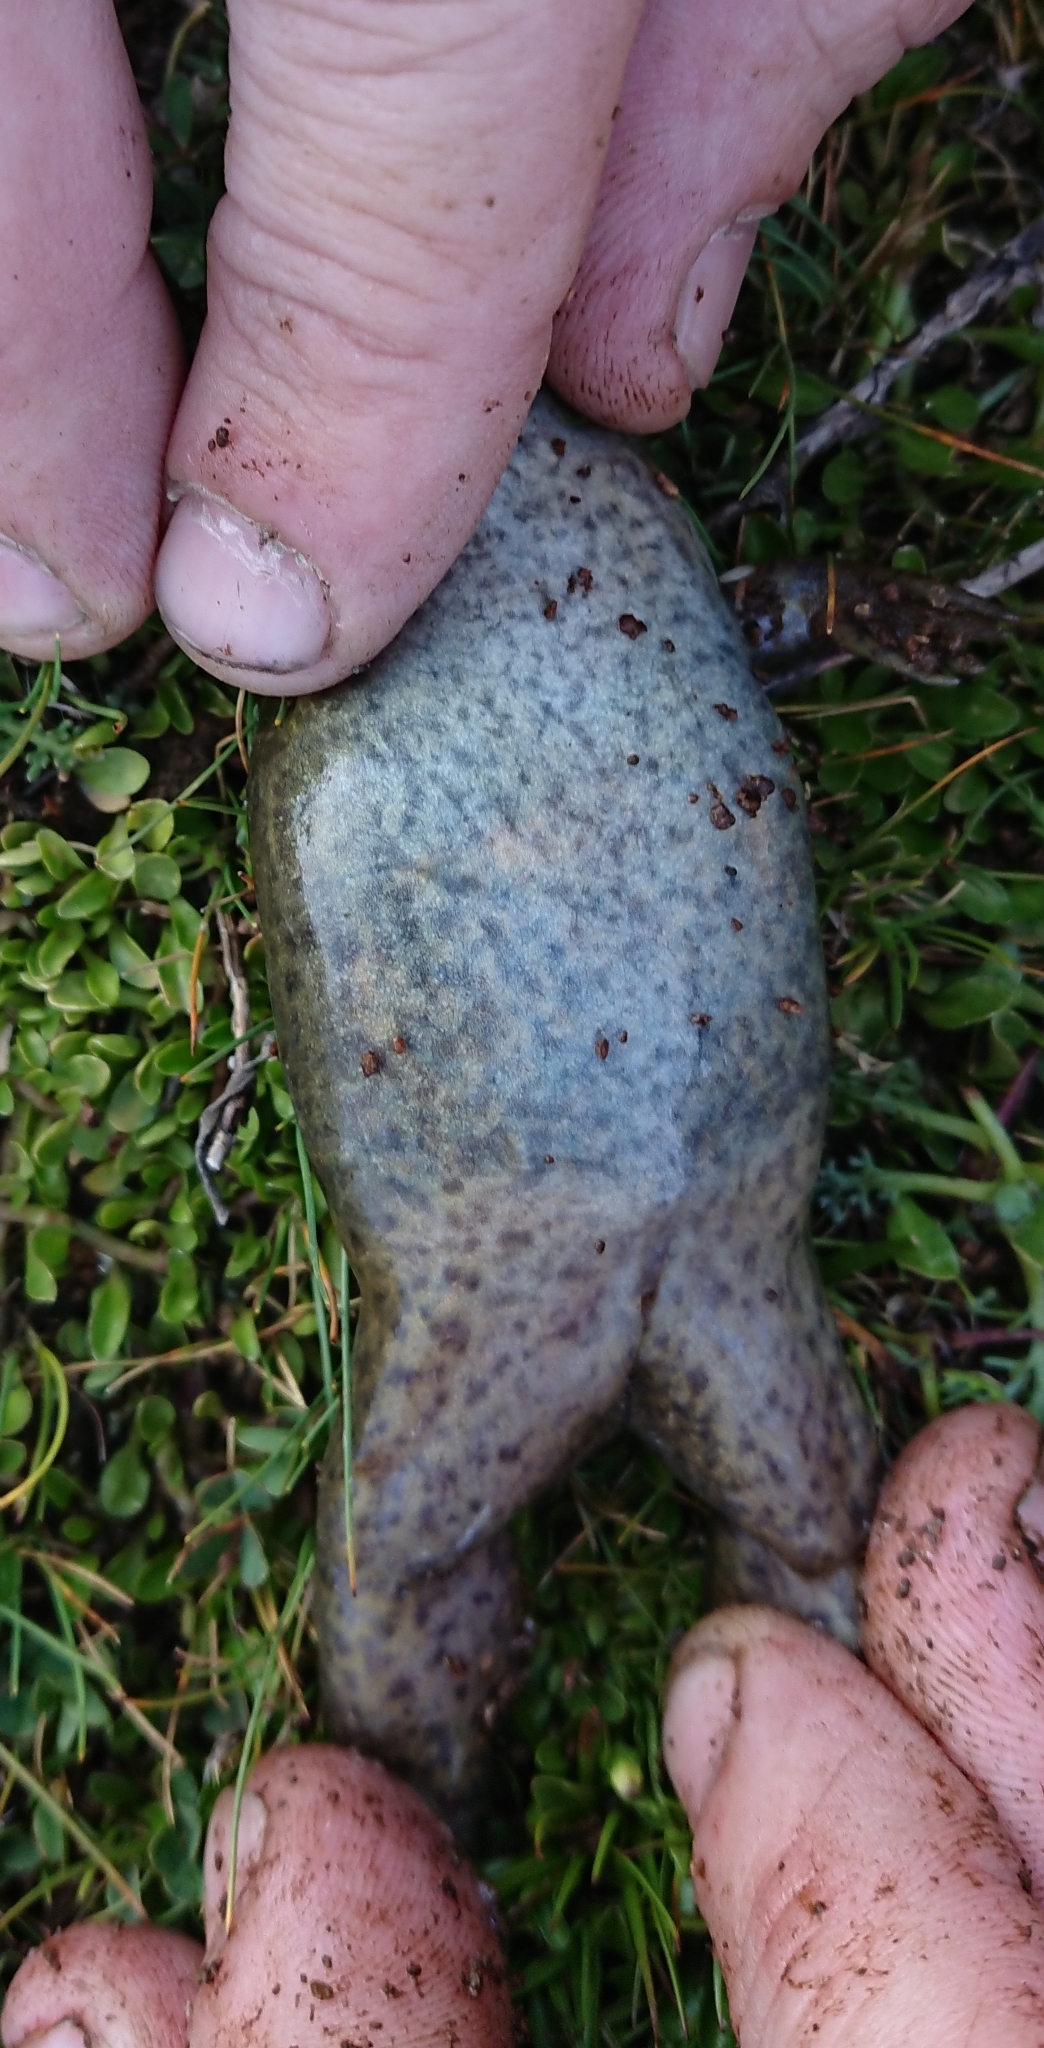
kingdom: Animalia
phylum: Chordata
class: Amphibia
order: Anura
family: Pipidae
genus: Xenopus
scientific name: Xenopus laevis
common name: African clawed frog
